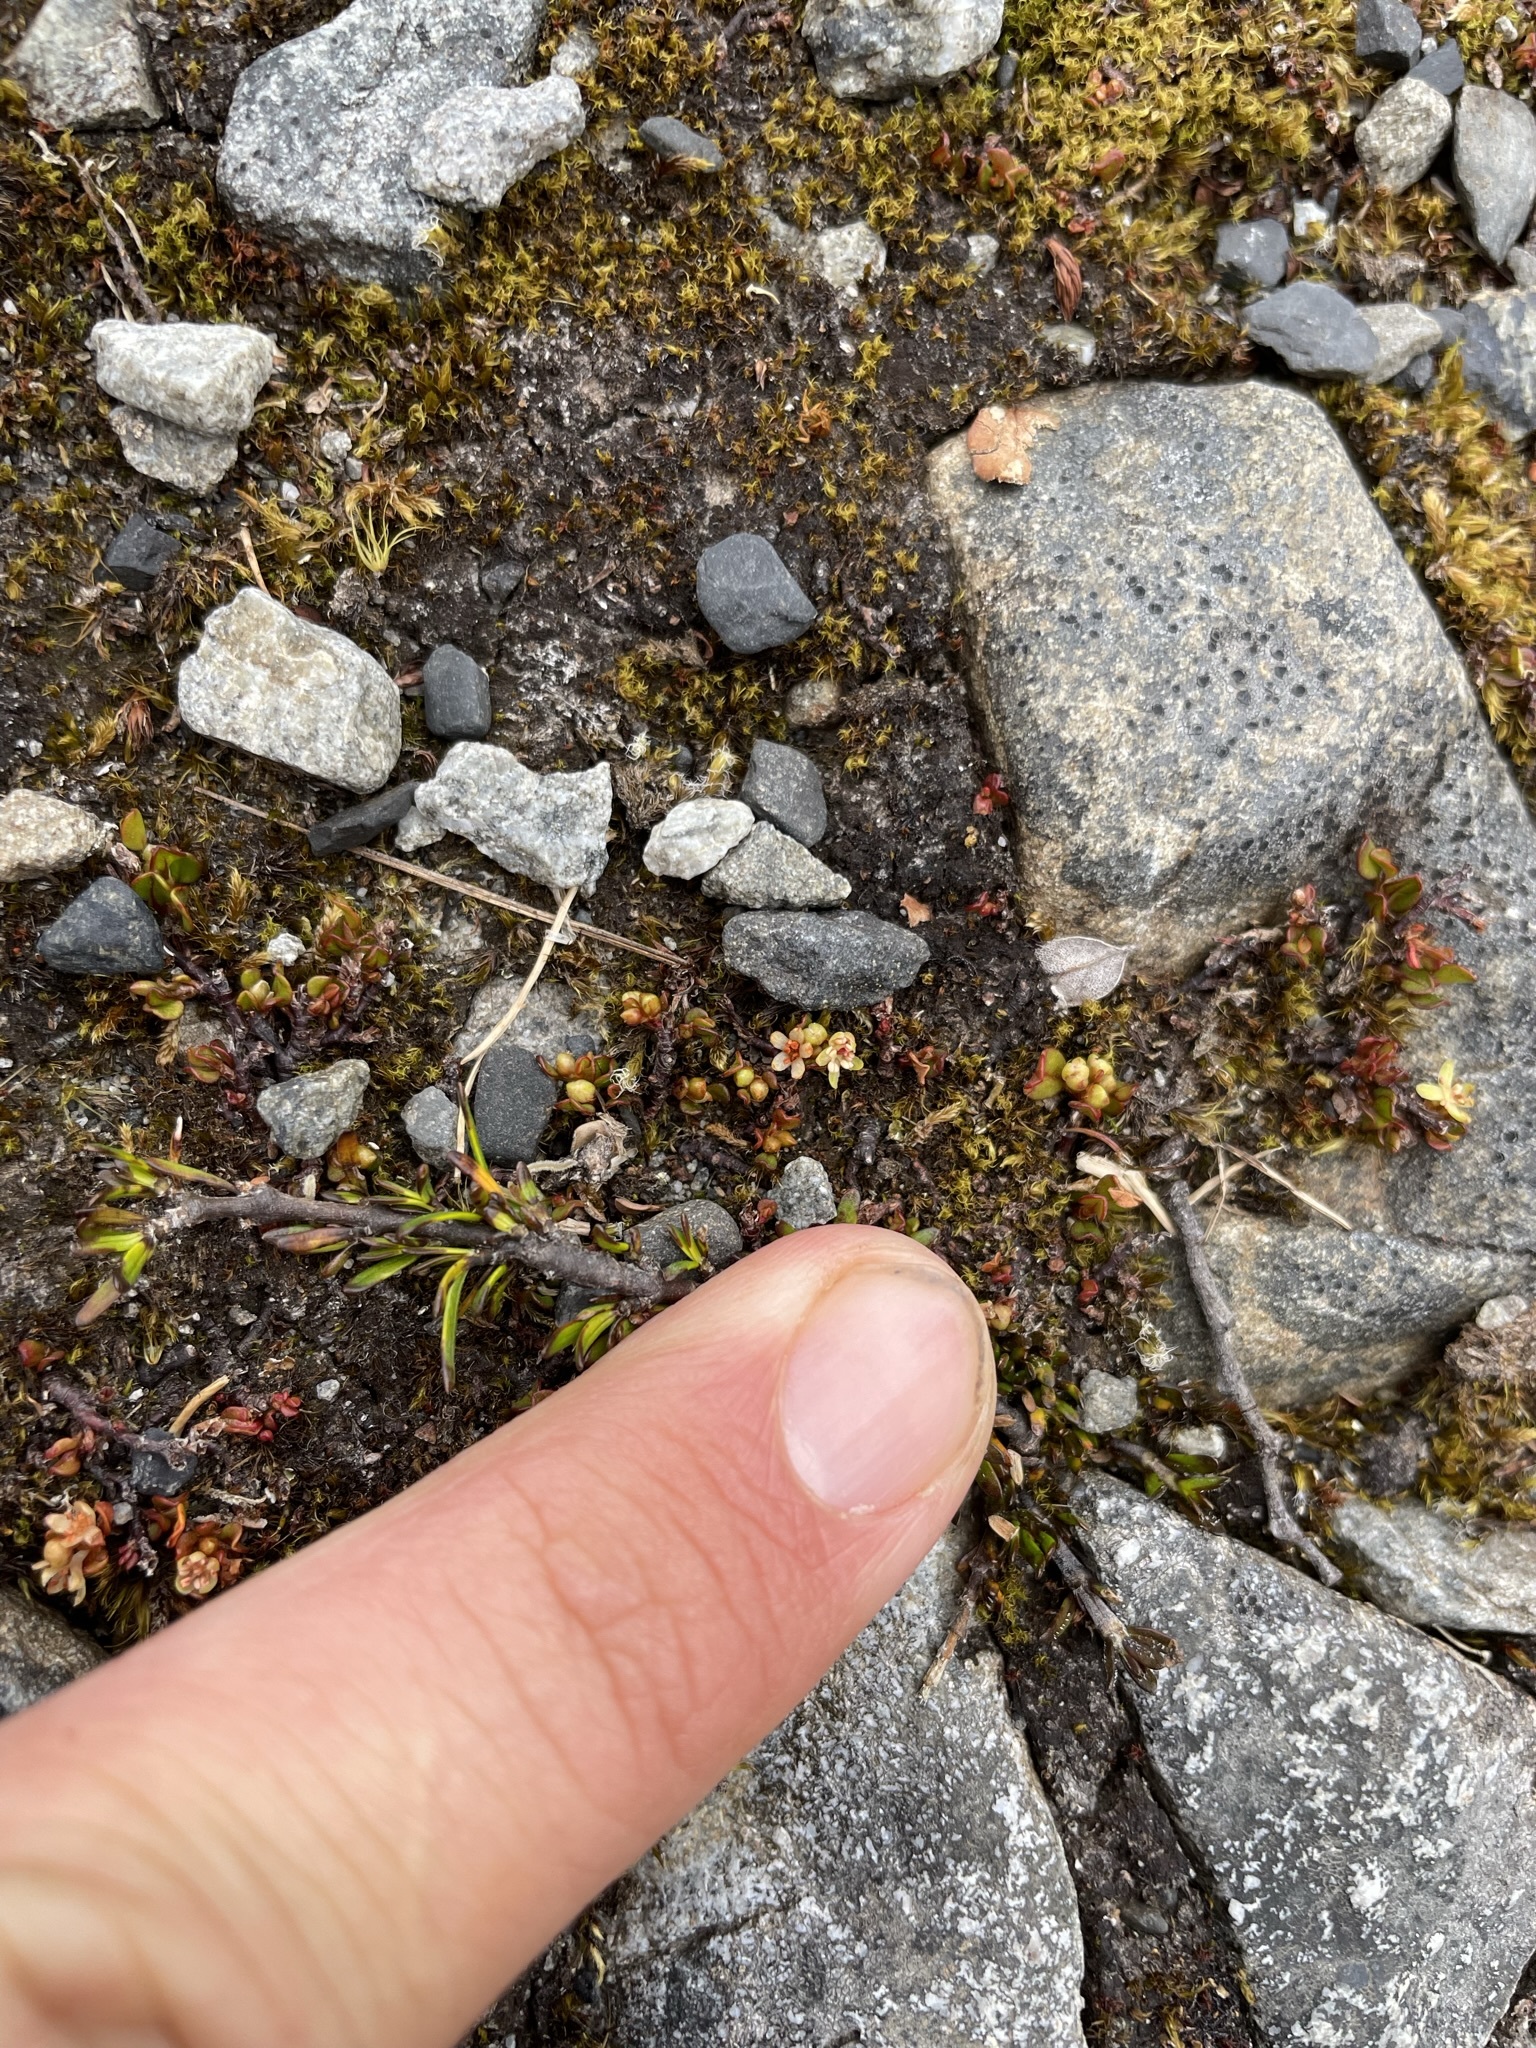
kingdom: Plantae
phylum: Tracheophyta
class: Magnoliopsida
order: Caryophyllales
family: Polygonaceae
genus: Muehlenbeckia
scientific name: Muehlenbeckia axillaris
